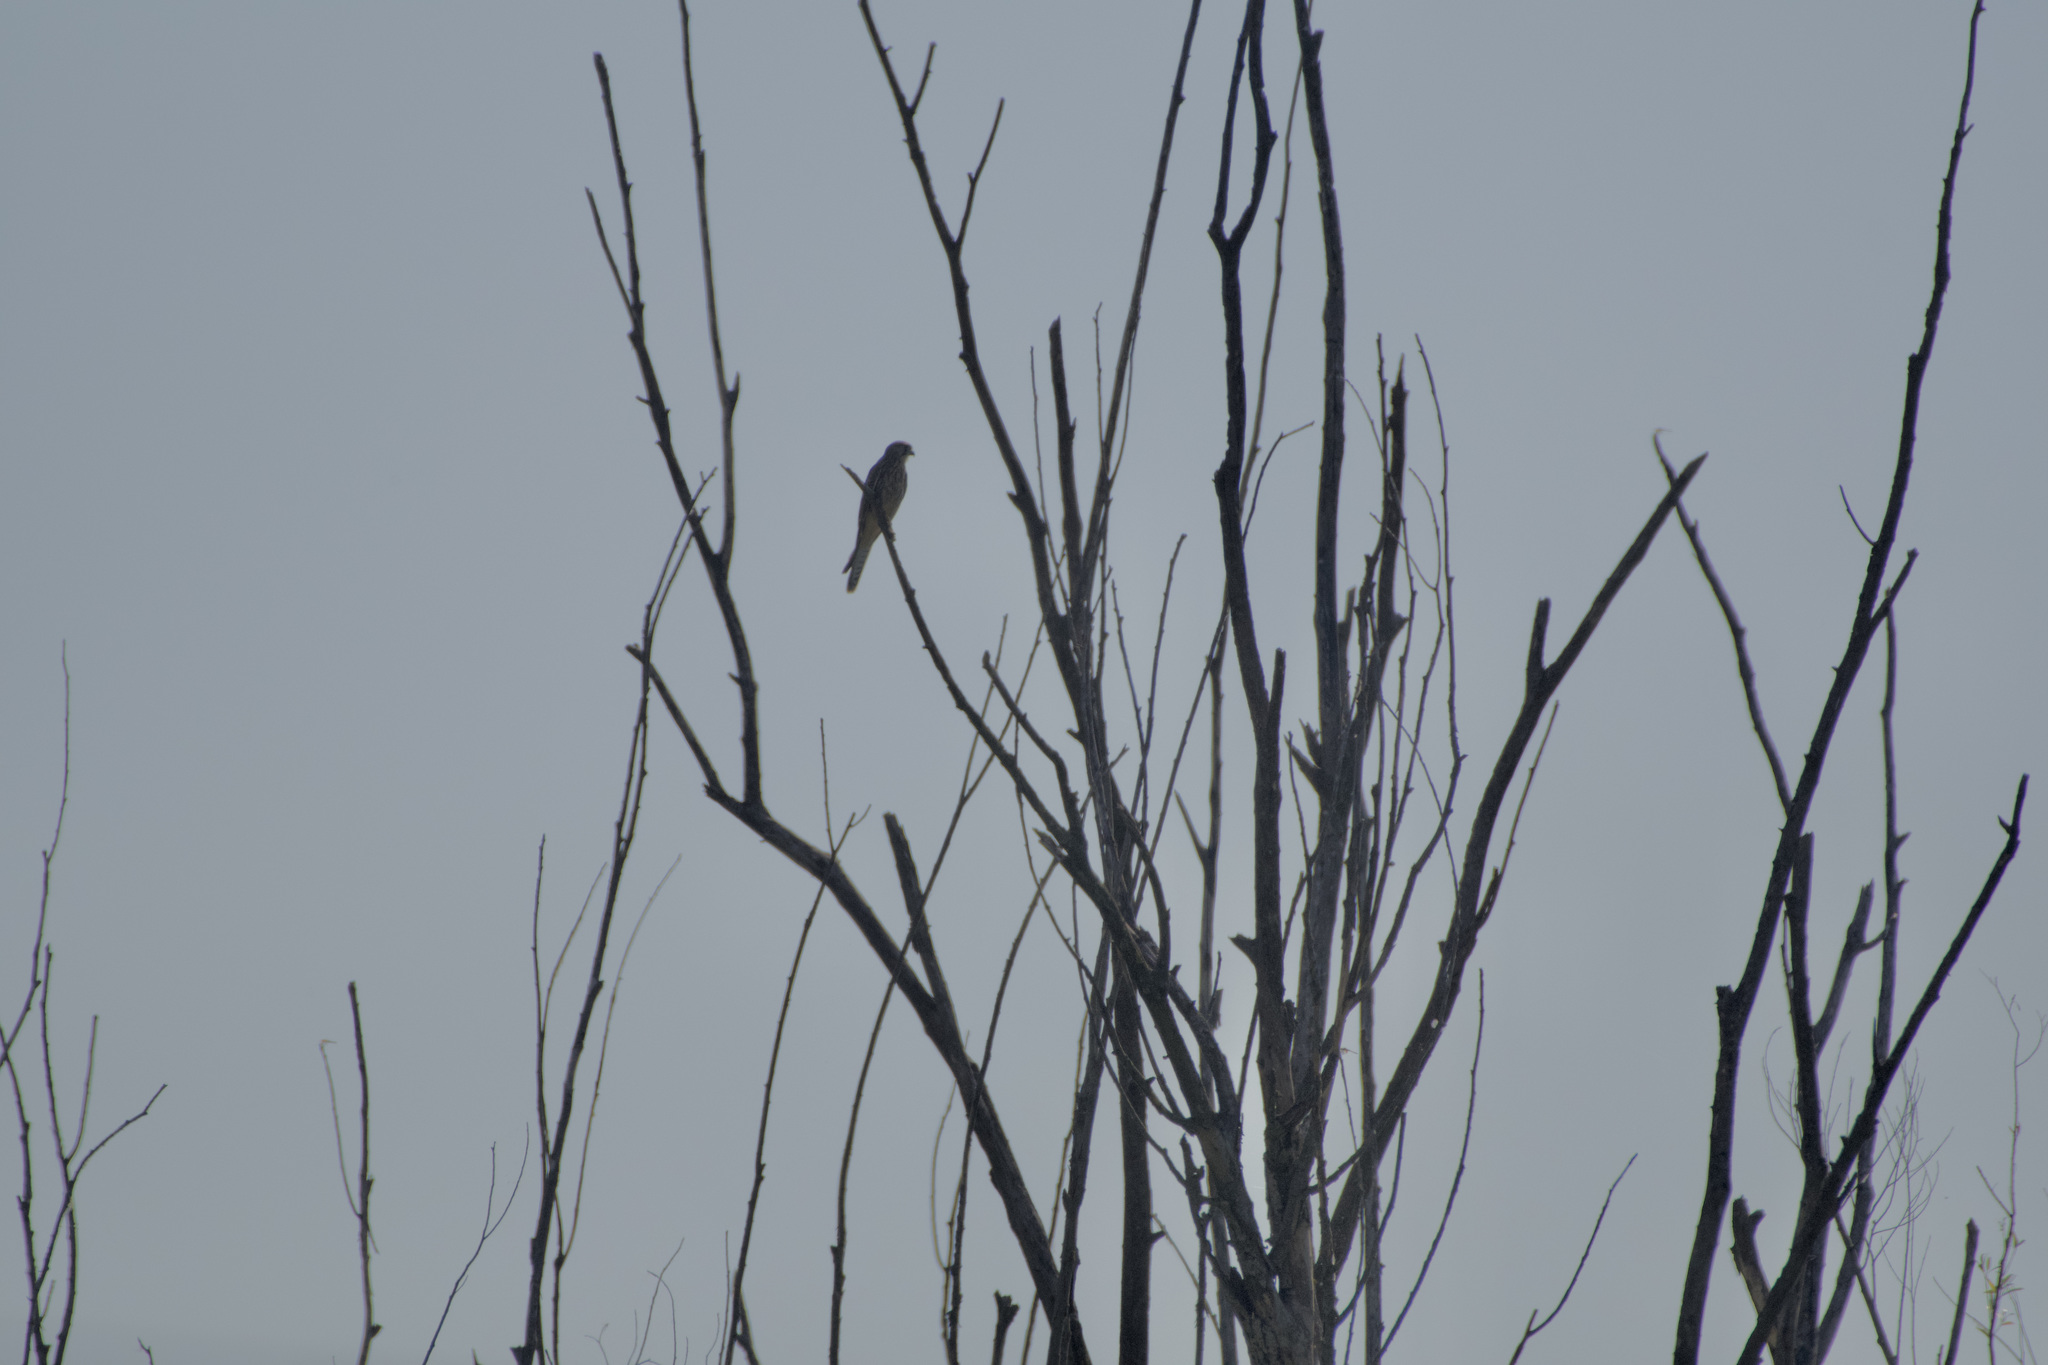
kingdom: Animalia
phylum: Chordata
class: Aves
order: Falconiformes
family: Falconidae
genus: Falco
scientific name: Falco tinnunculus
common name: Common kestrel
